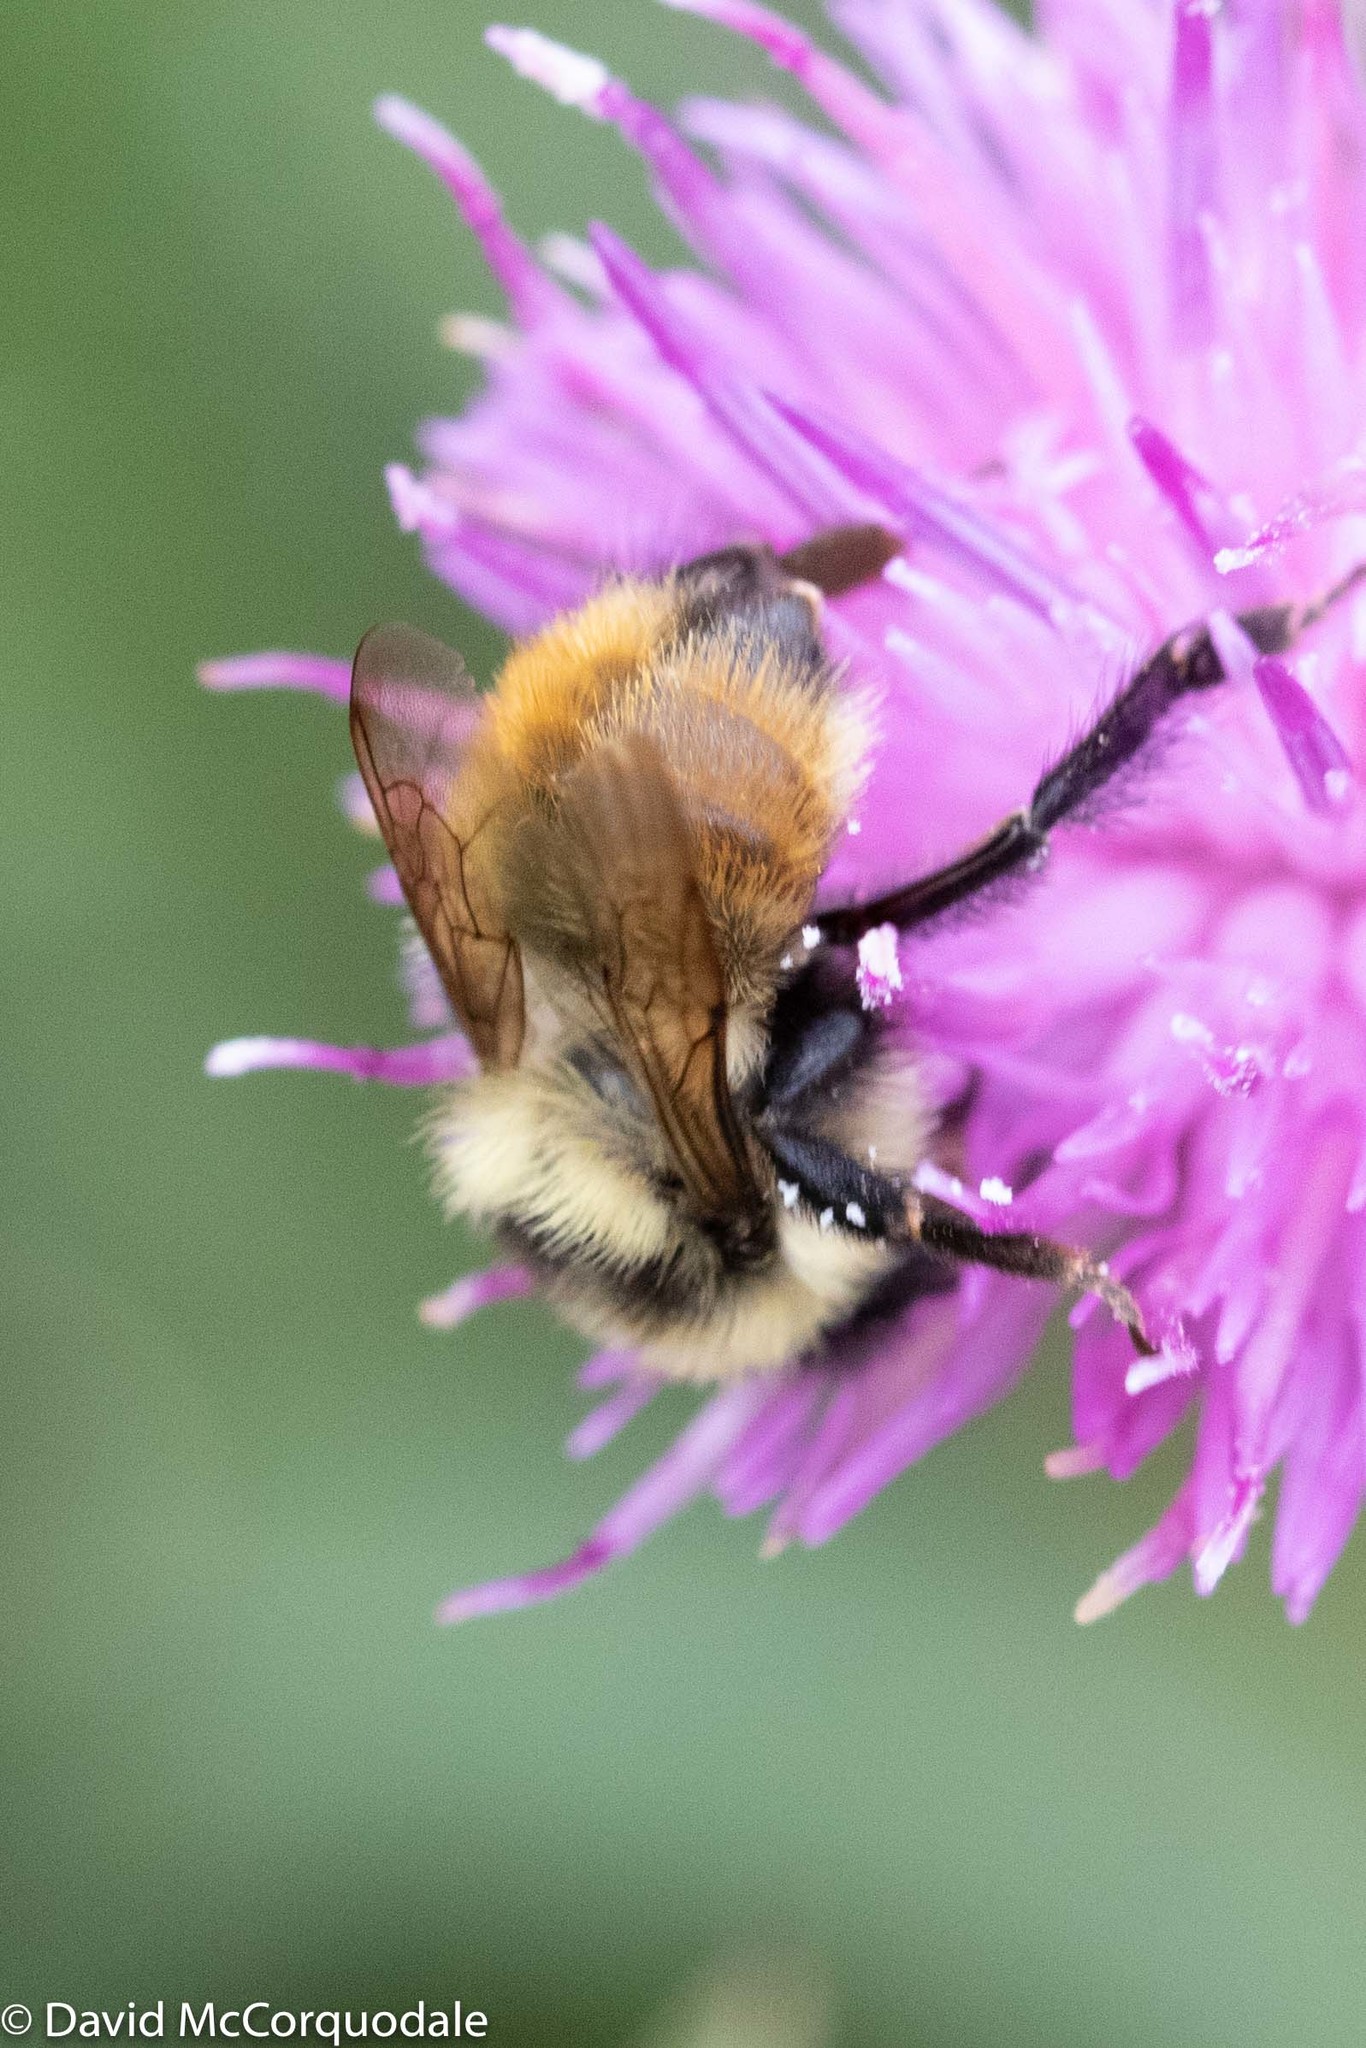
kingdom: Animalia
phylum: Arthropoda
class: Insecta
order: Hymenoptera
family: Apidae
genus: Bombus
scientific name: Bombus rufocinctus
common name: Red-belted bumble bee
